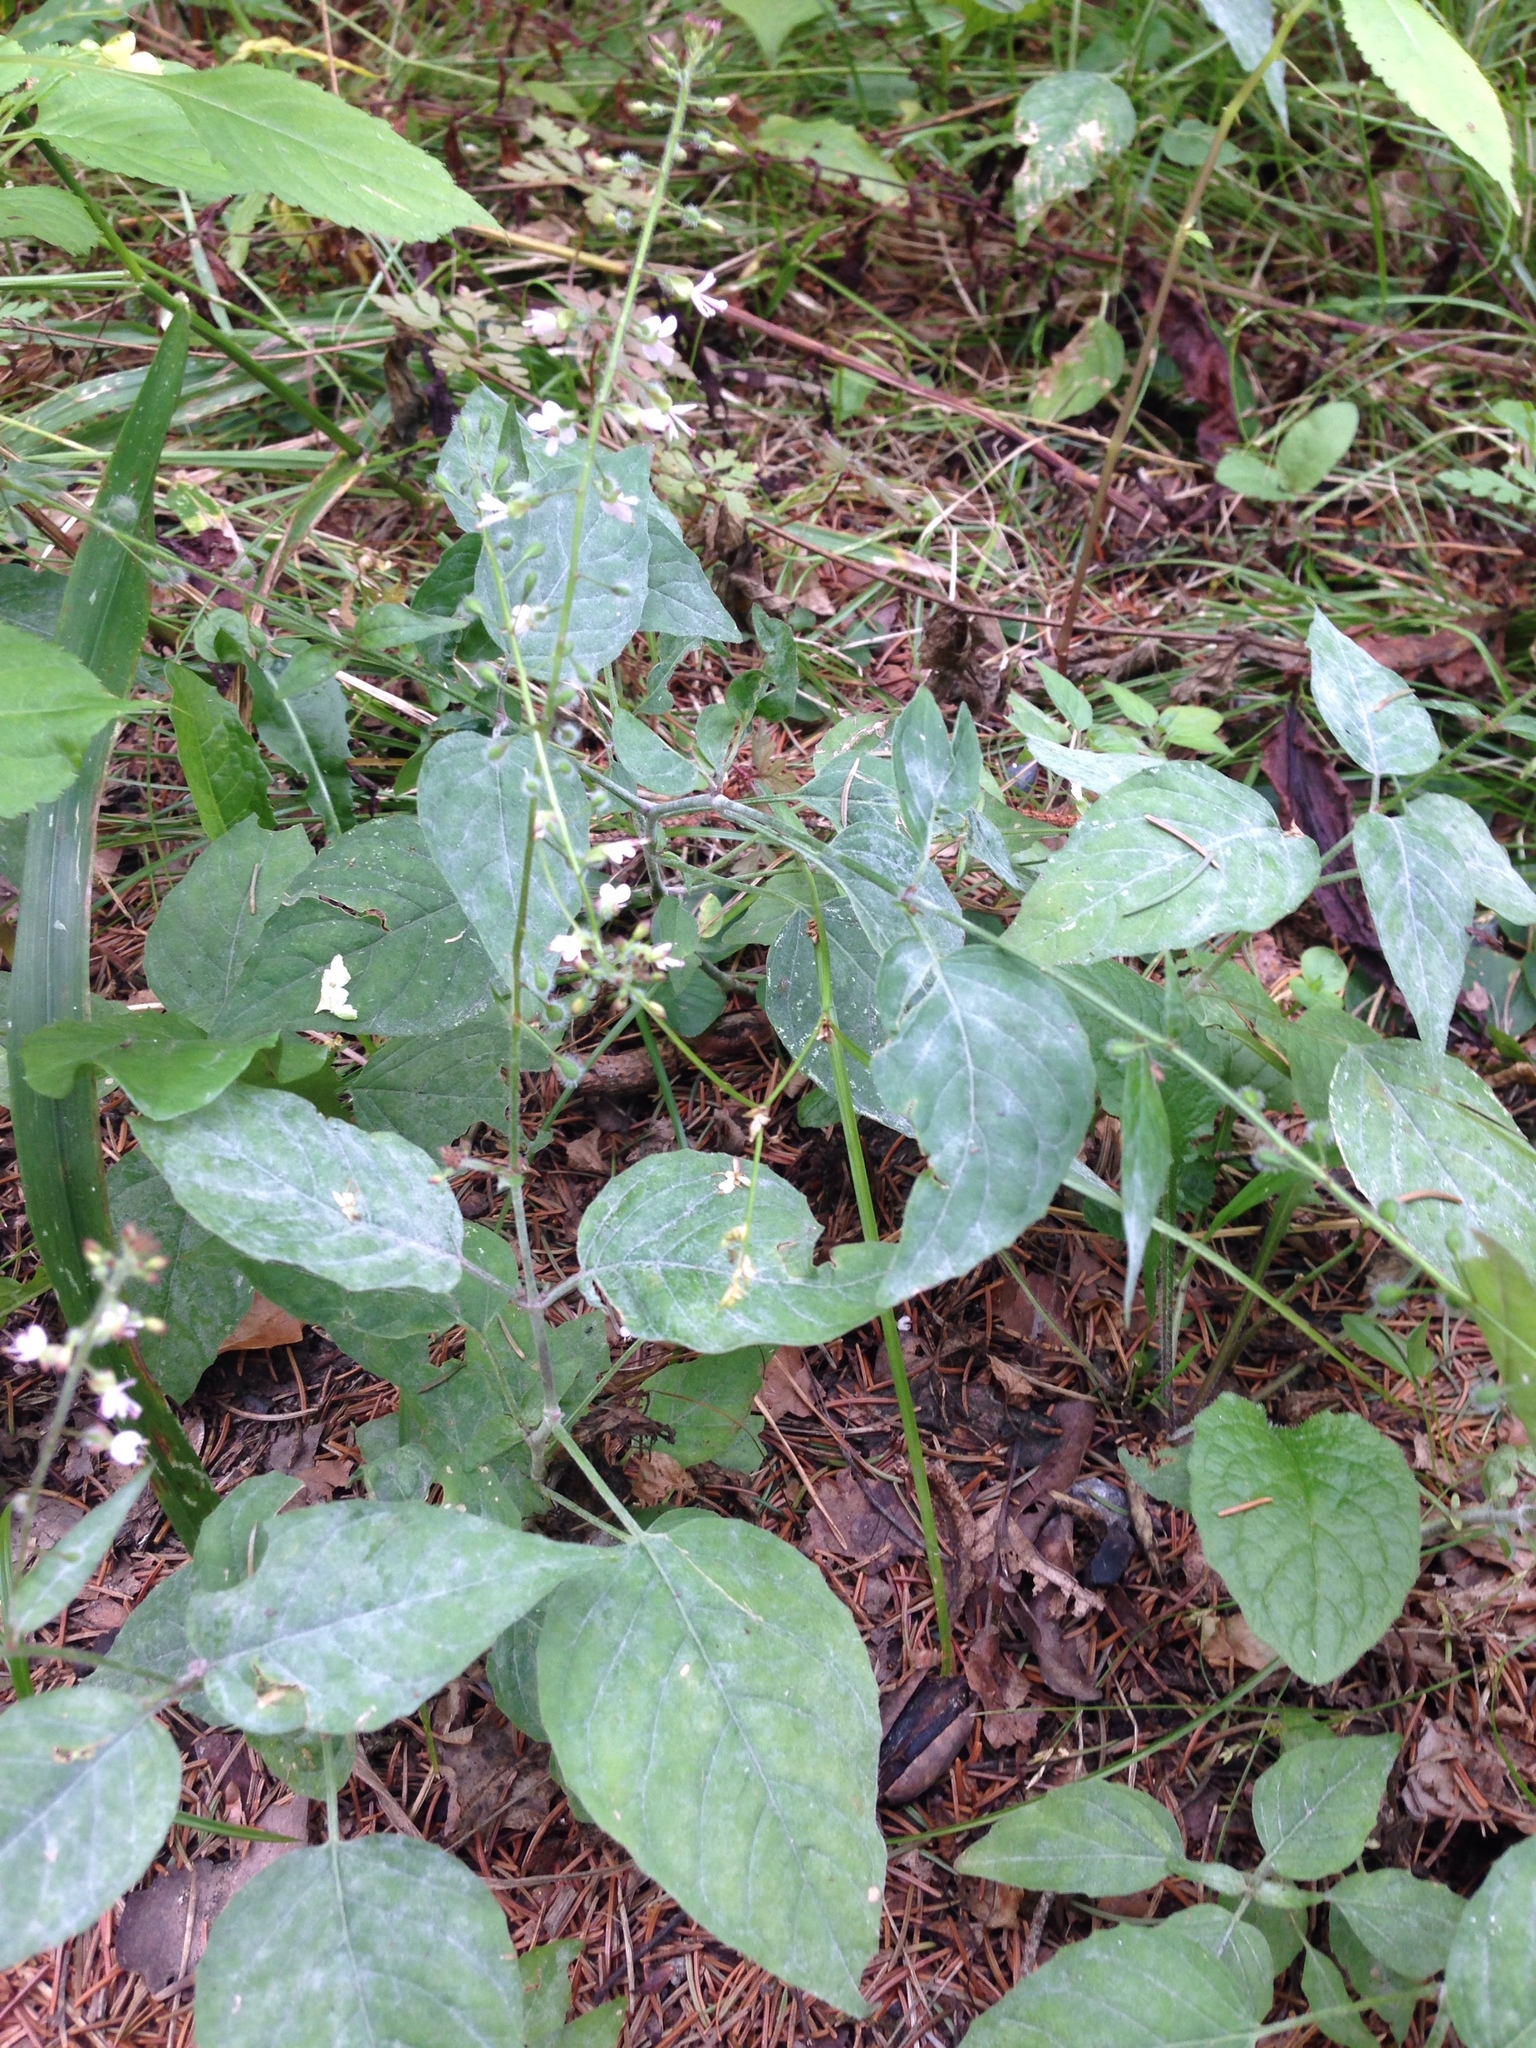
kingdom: Plantae
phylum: Tracheophyta
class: Magnoliopsida
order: Myrtales
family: Onagraceae
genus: Circaea
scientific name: Circaea lutetiana
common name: Enchanter's-nightshade
